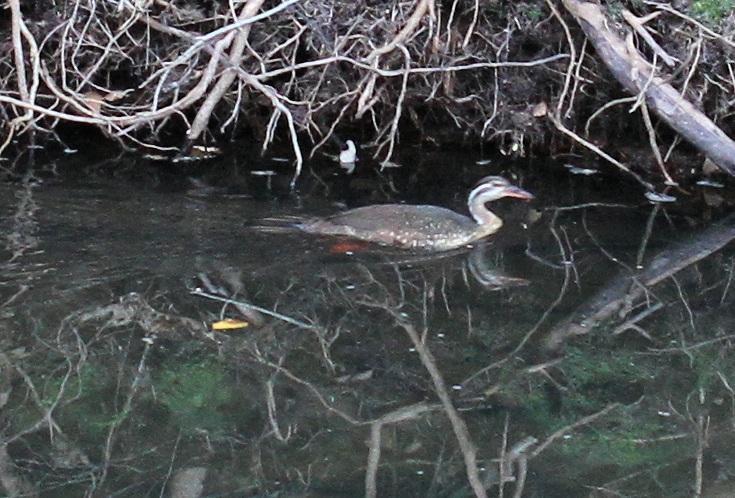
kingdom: Animalia
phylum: Chordata
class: Aves
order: Gruiformes
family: Heliornithidae
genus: Podica
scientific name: Podica senegalensis
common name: African finfoot
